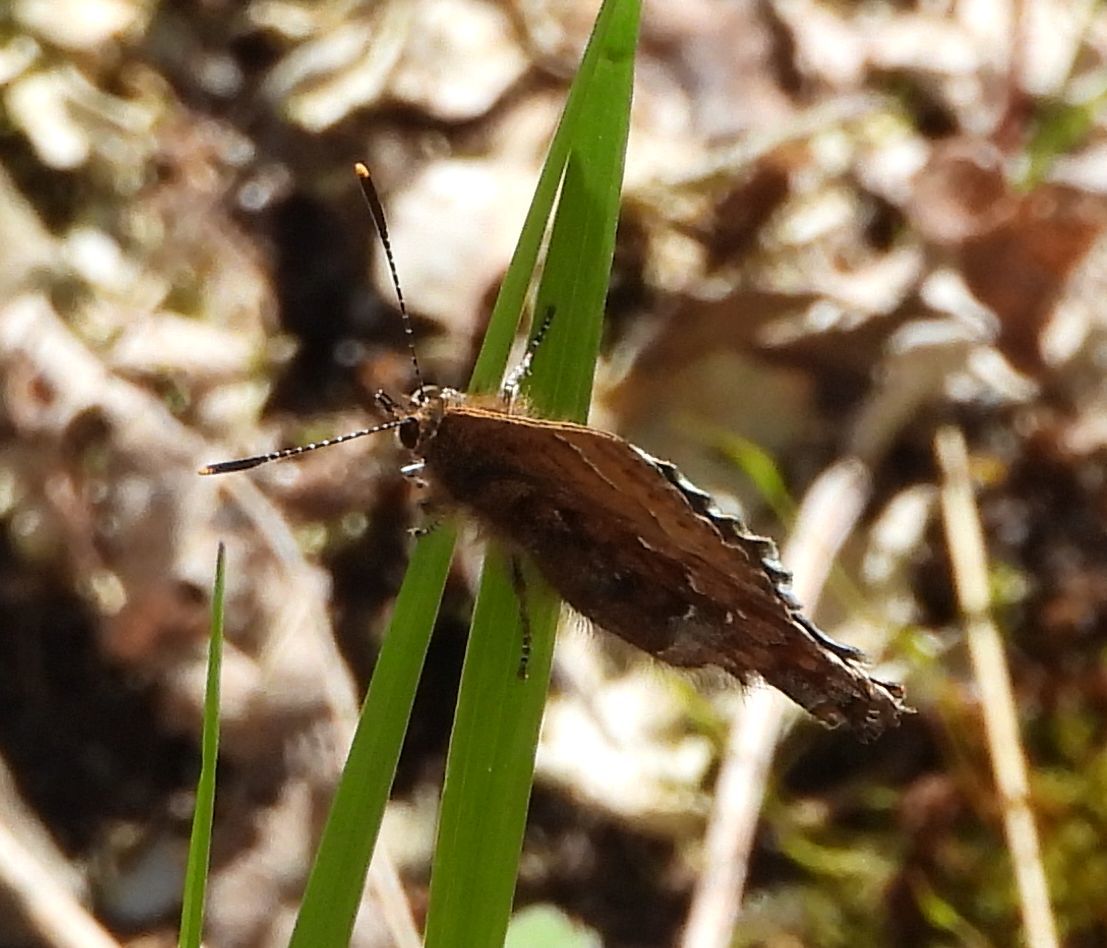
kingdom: Animalia
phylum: Arthropoda
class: Insecta
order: Lepidoptera
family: Lycaenidae
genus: Incisalia
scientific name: Incisalia niphon
